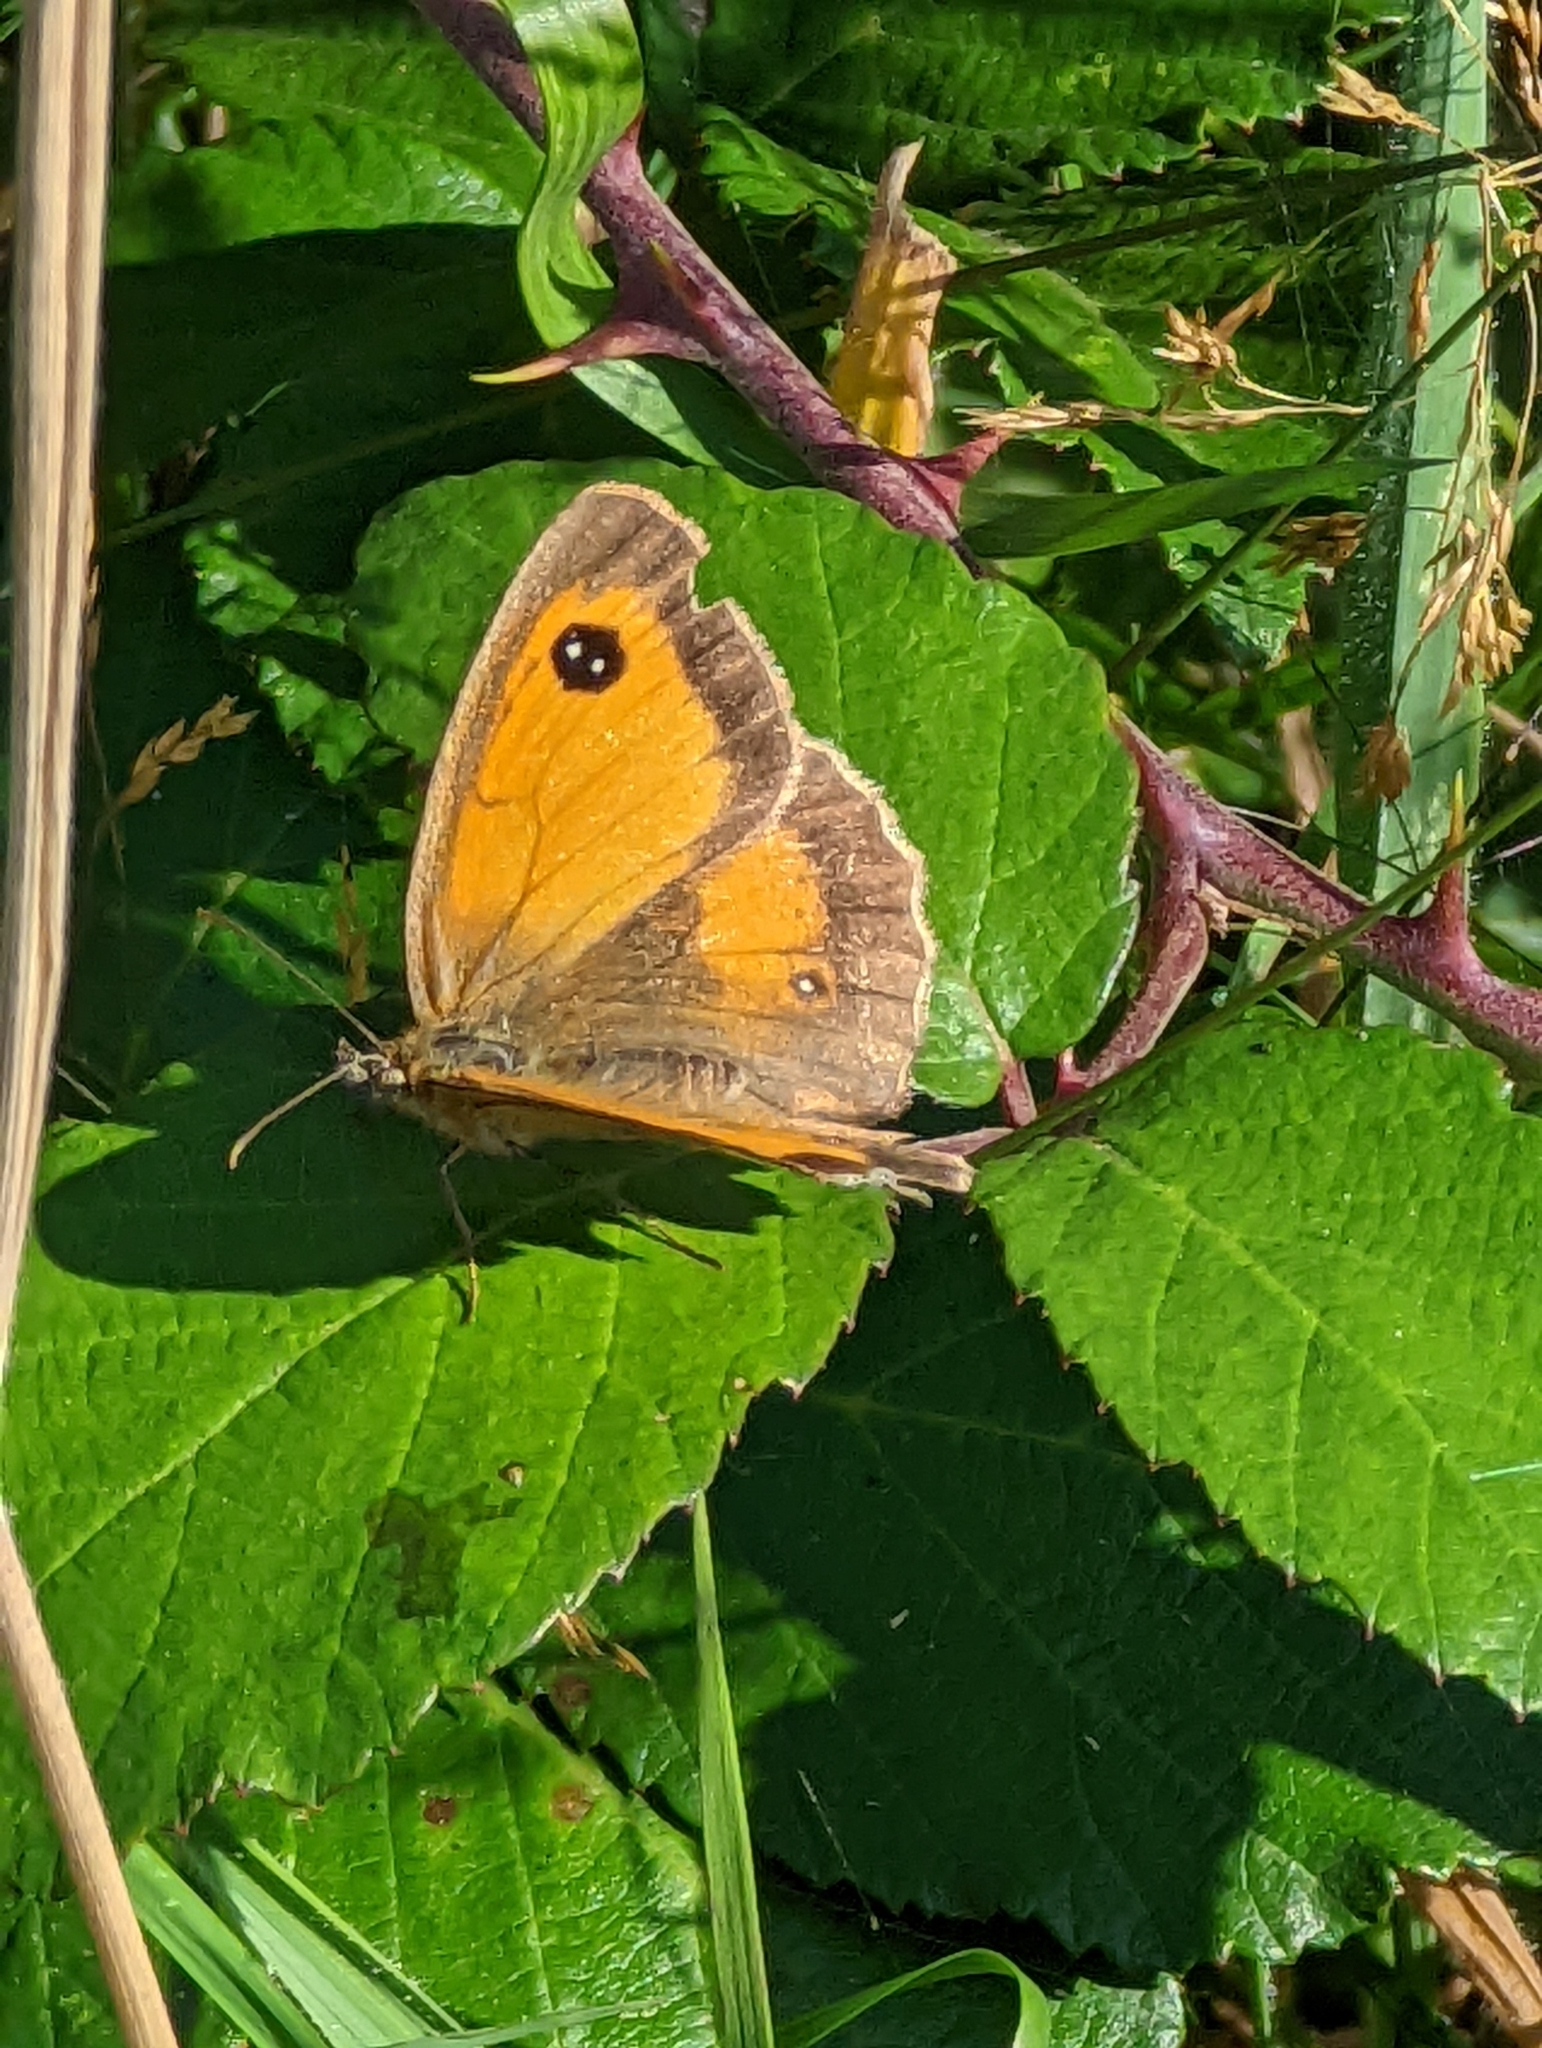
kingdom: Animalia
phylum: Arthropoda
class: Insecta
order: Lepidoptera
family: Nymphalidae
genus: Pyronia
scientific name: Pyronia tithonus
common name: Gatekeeper
